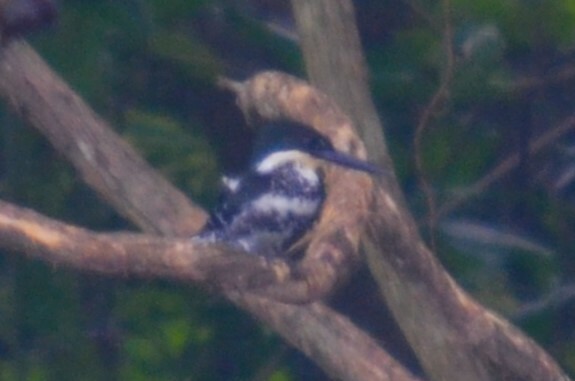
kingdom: Animalia
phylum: Chordata
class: Aves
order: Coraciiformes
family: Alcedinidae
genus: Chloroceryle
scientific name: Chloroceryle americana
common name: Green kingfisher
